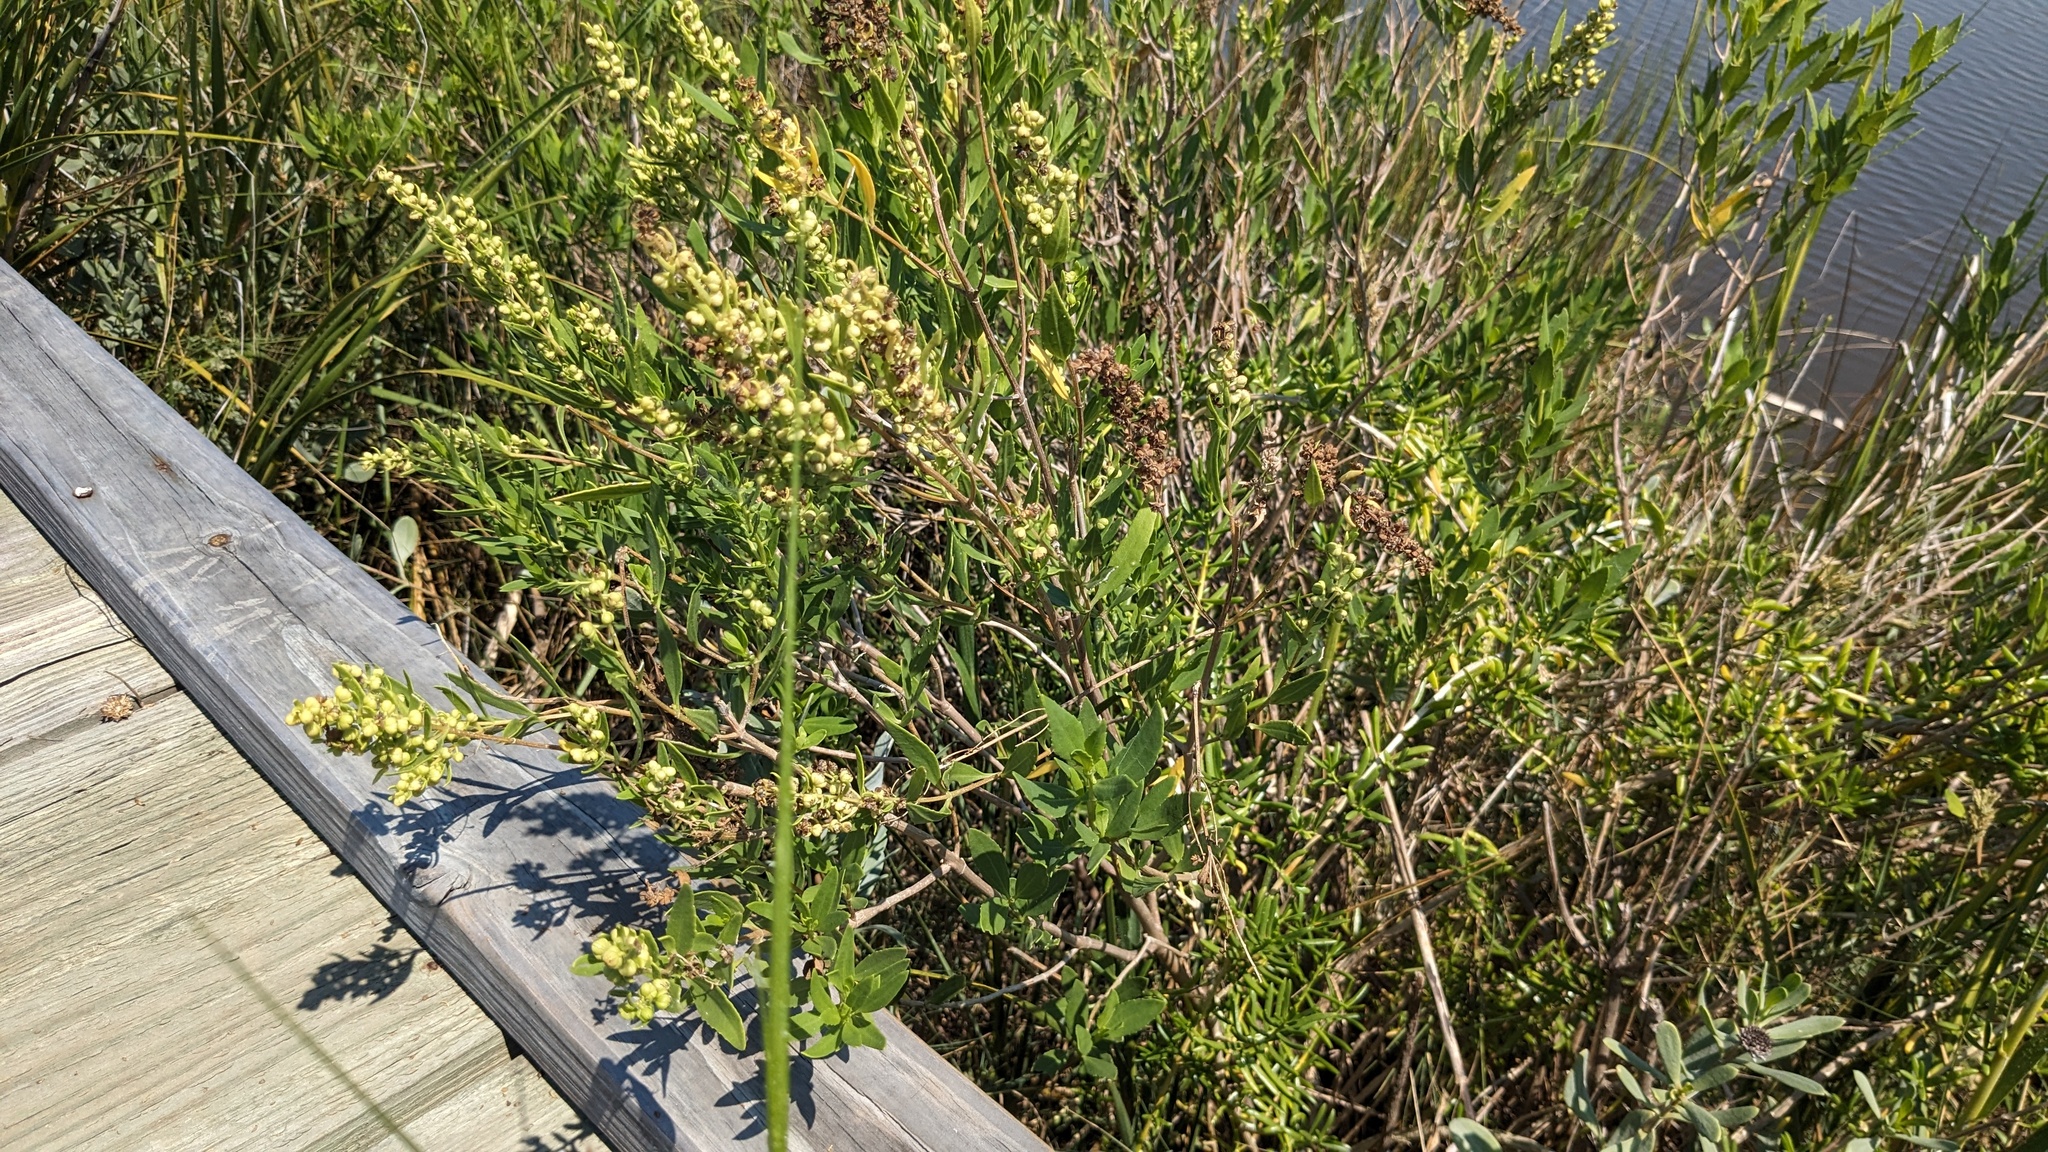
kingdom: Plantae
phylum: Tracheophyta
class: Magnoliopsida
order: Asterales
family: Asteraceae
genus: Iva
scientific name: Iva frutescens
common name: Big-leaved marsh-elder
